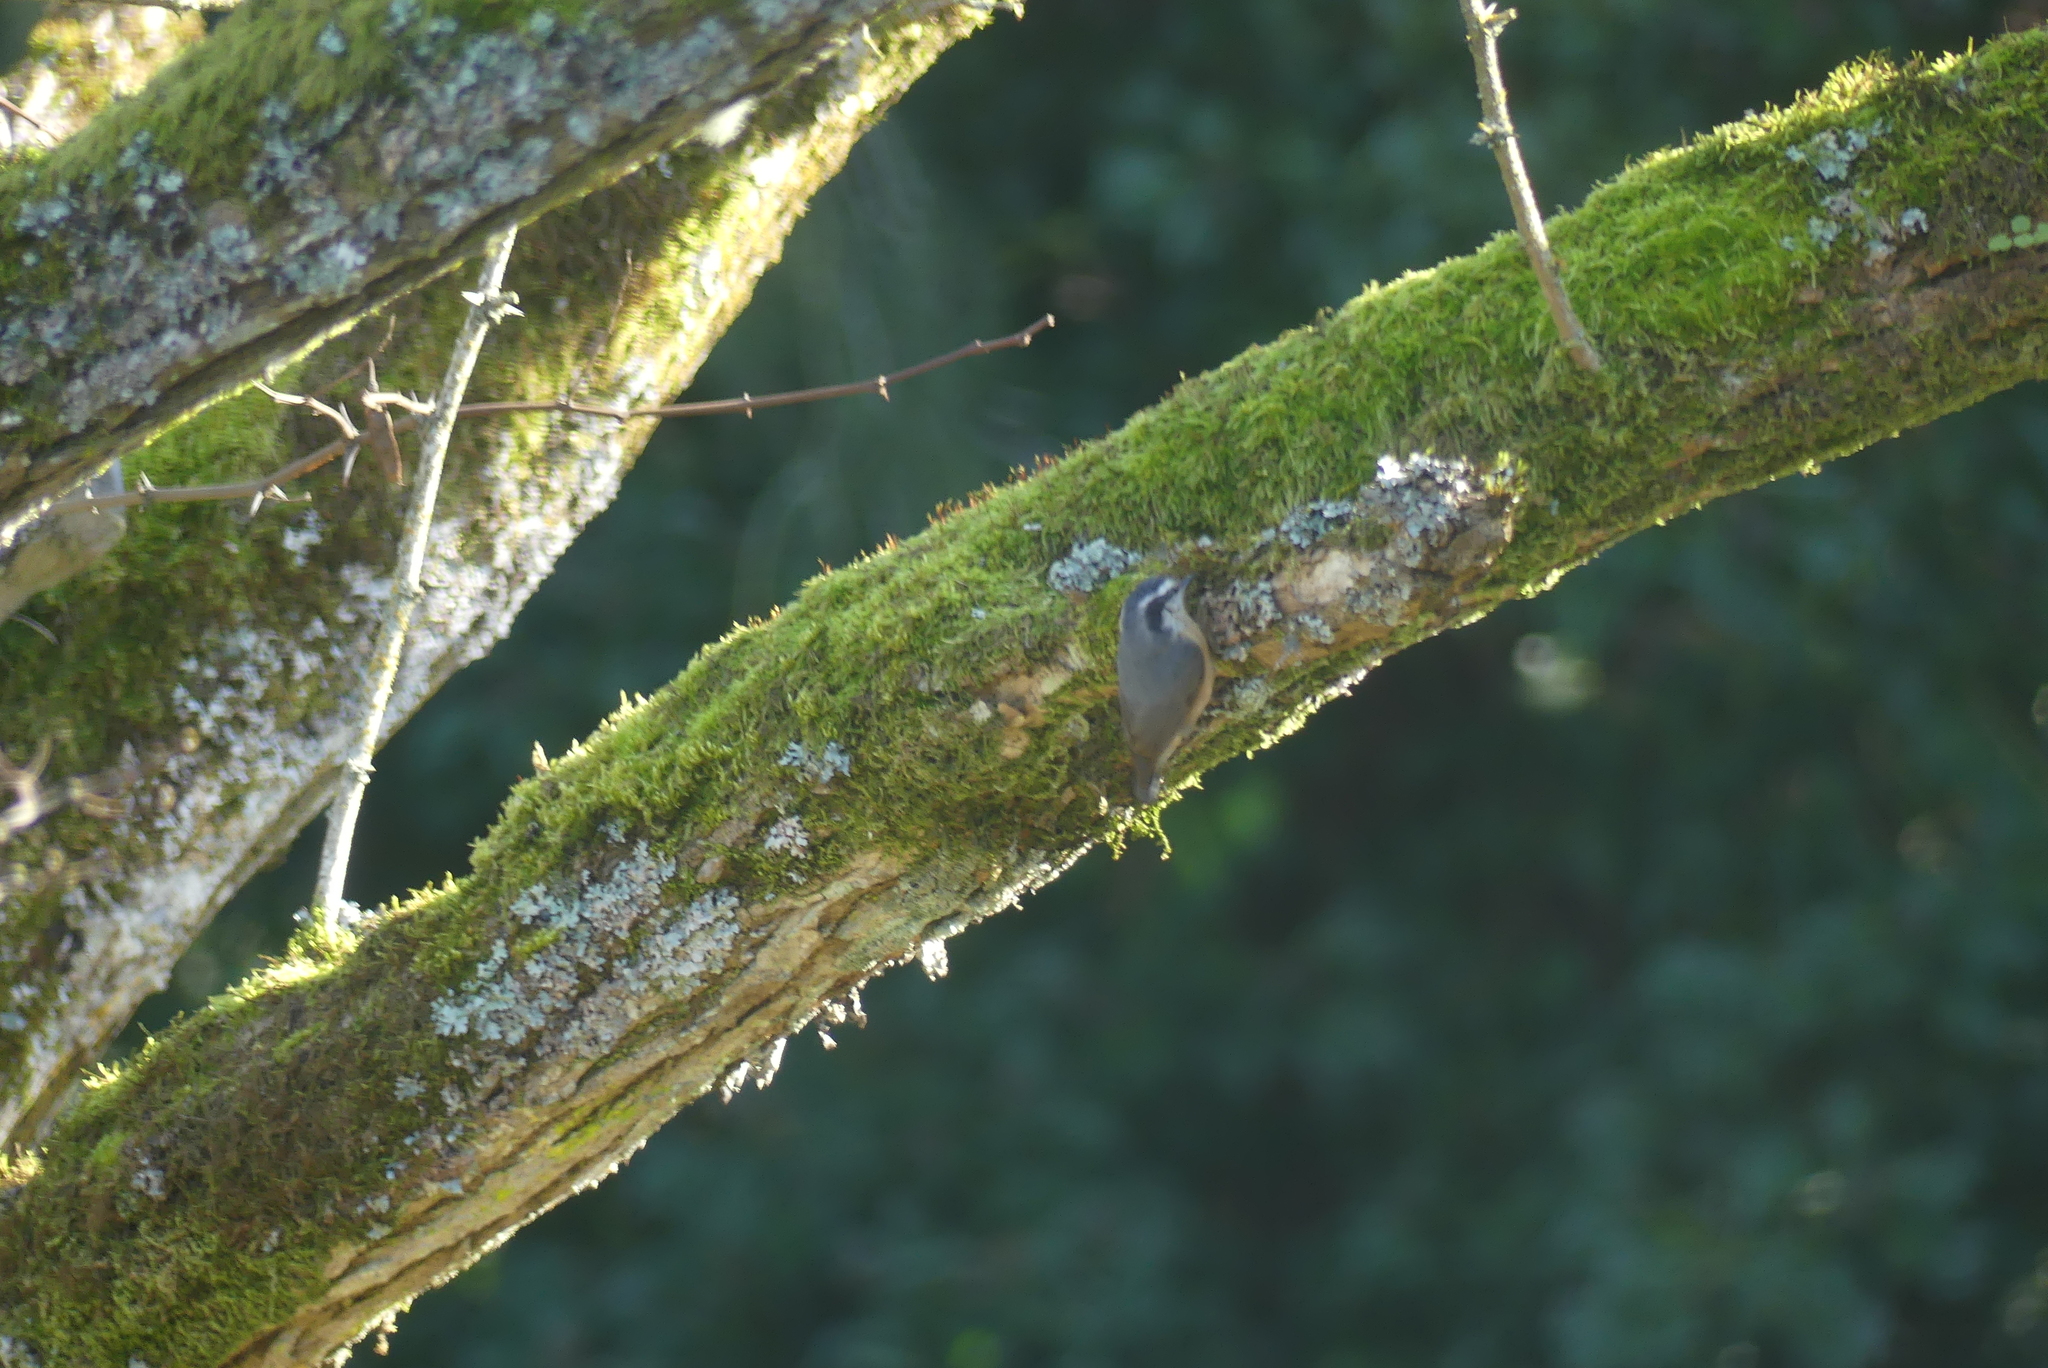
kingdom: Animalia
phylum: Chordata
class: Aves
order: Passeriformes
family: Sittidae
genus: Sitta
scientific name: Sitta canadensis
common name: Red-breasted nuthatch
